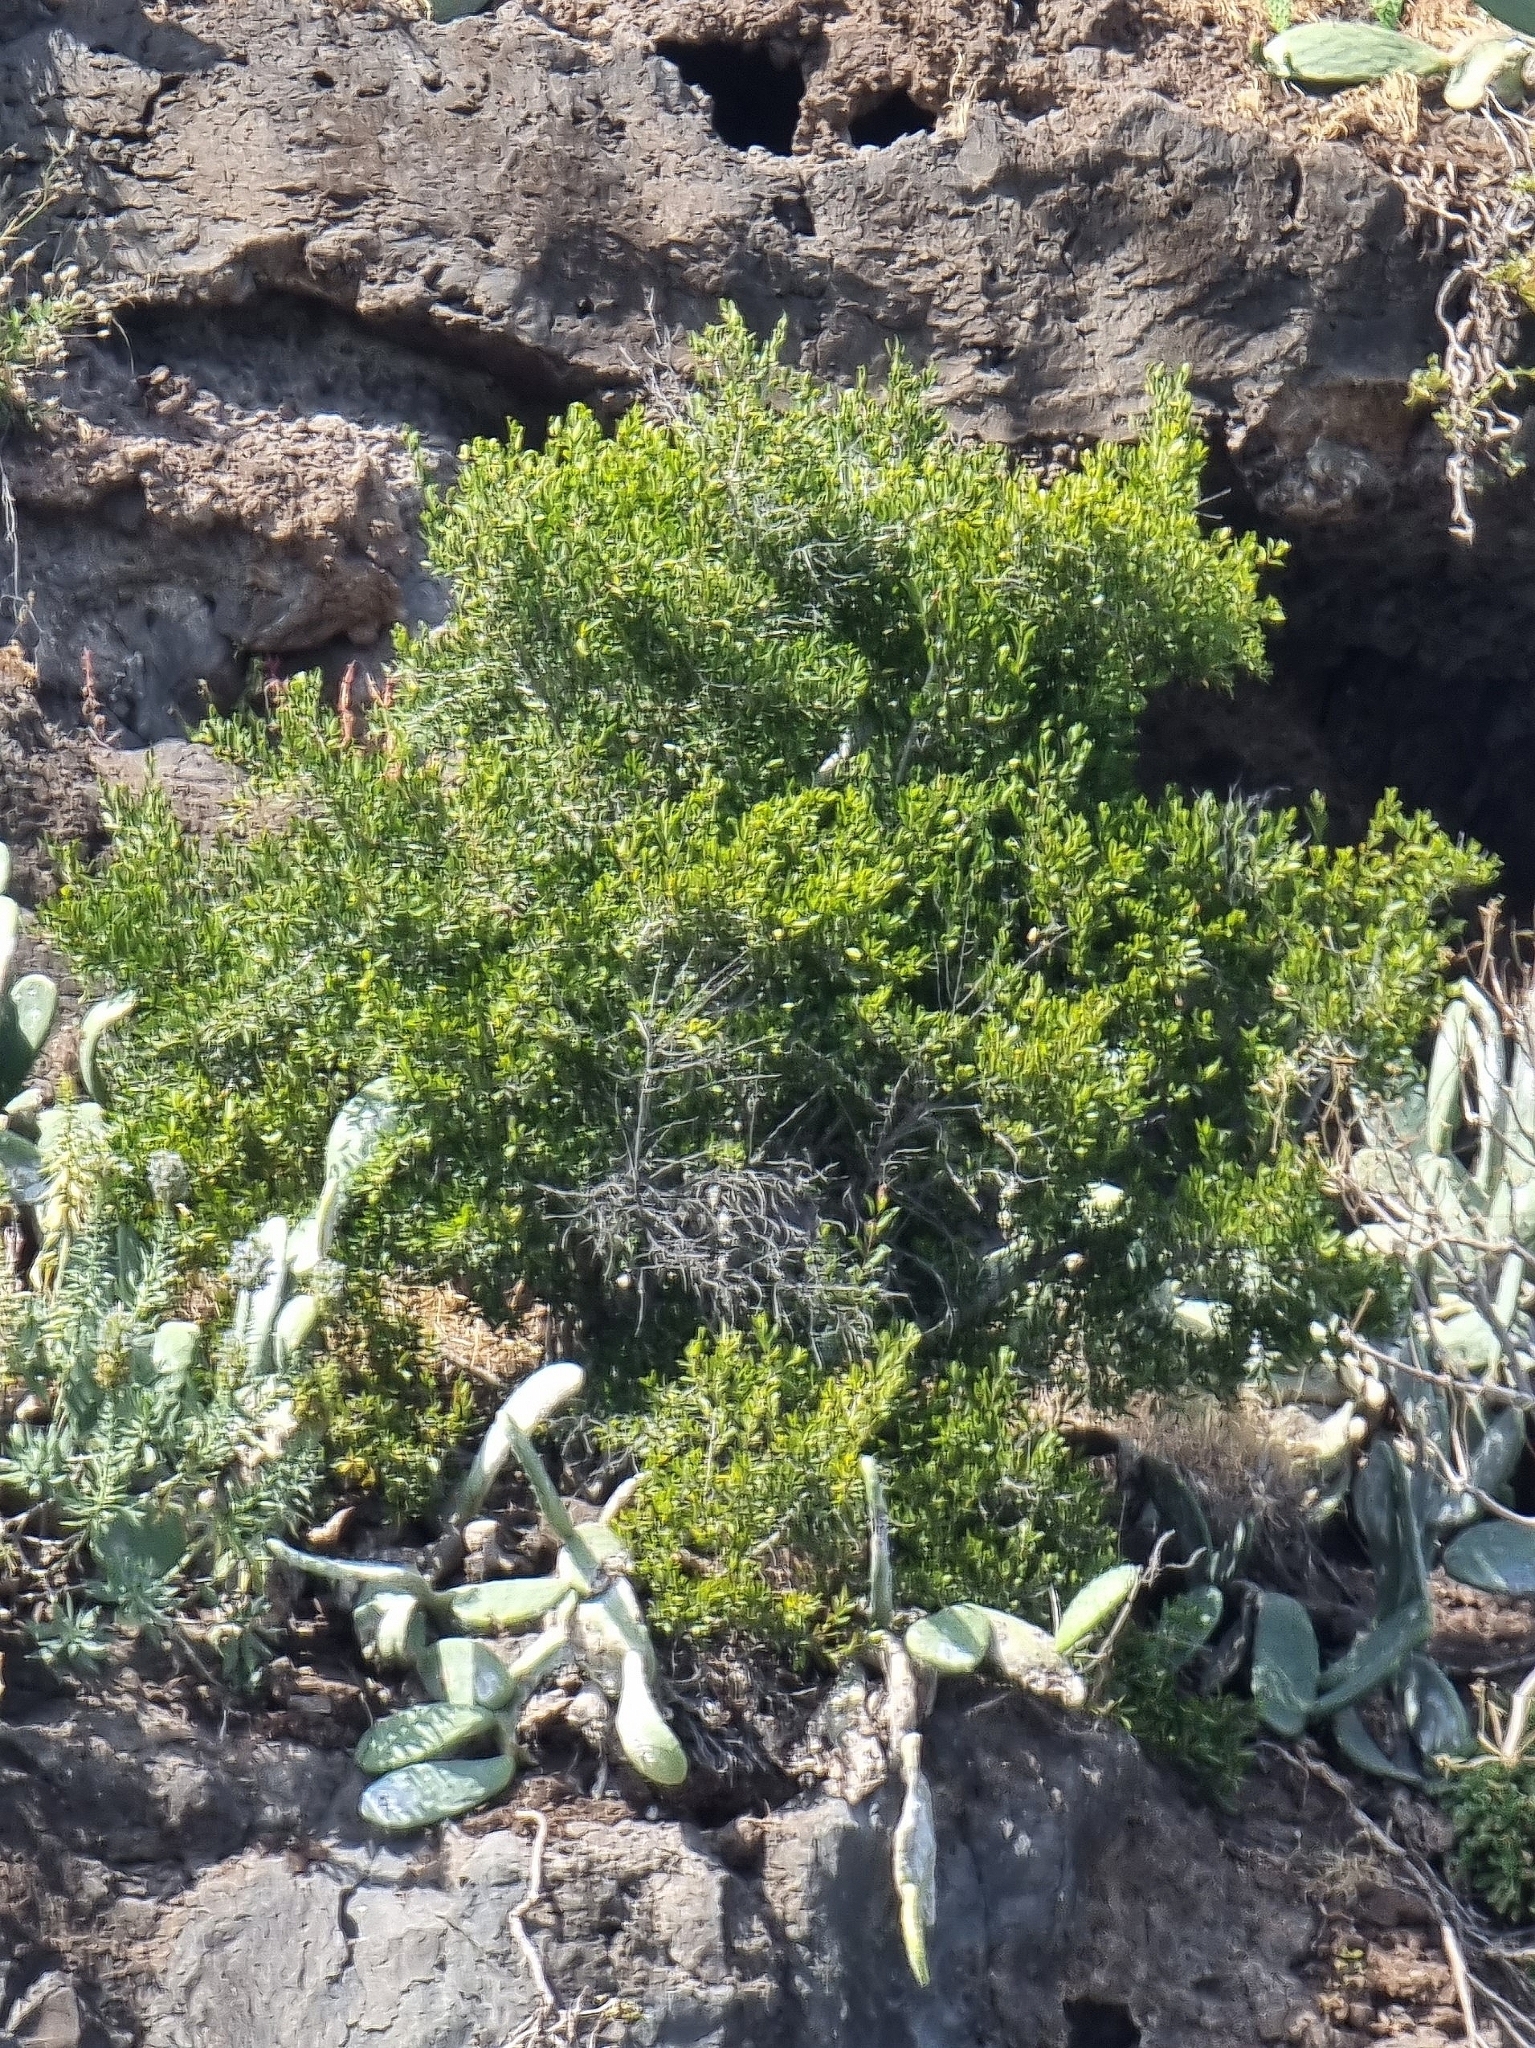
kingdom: Plantae
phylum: Tracheophyta
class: Magnoliopsida
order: Celastrales
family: Celastraceae
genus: Gymnosporia
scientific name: Gymnosporia dryandri
